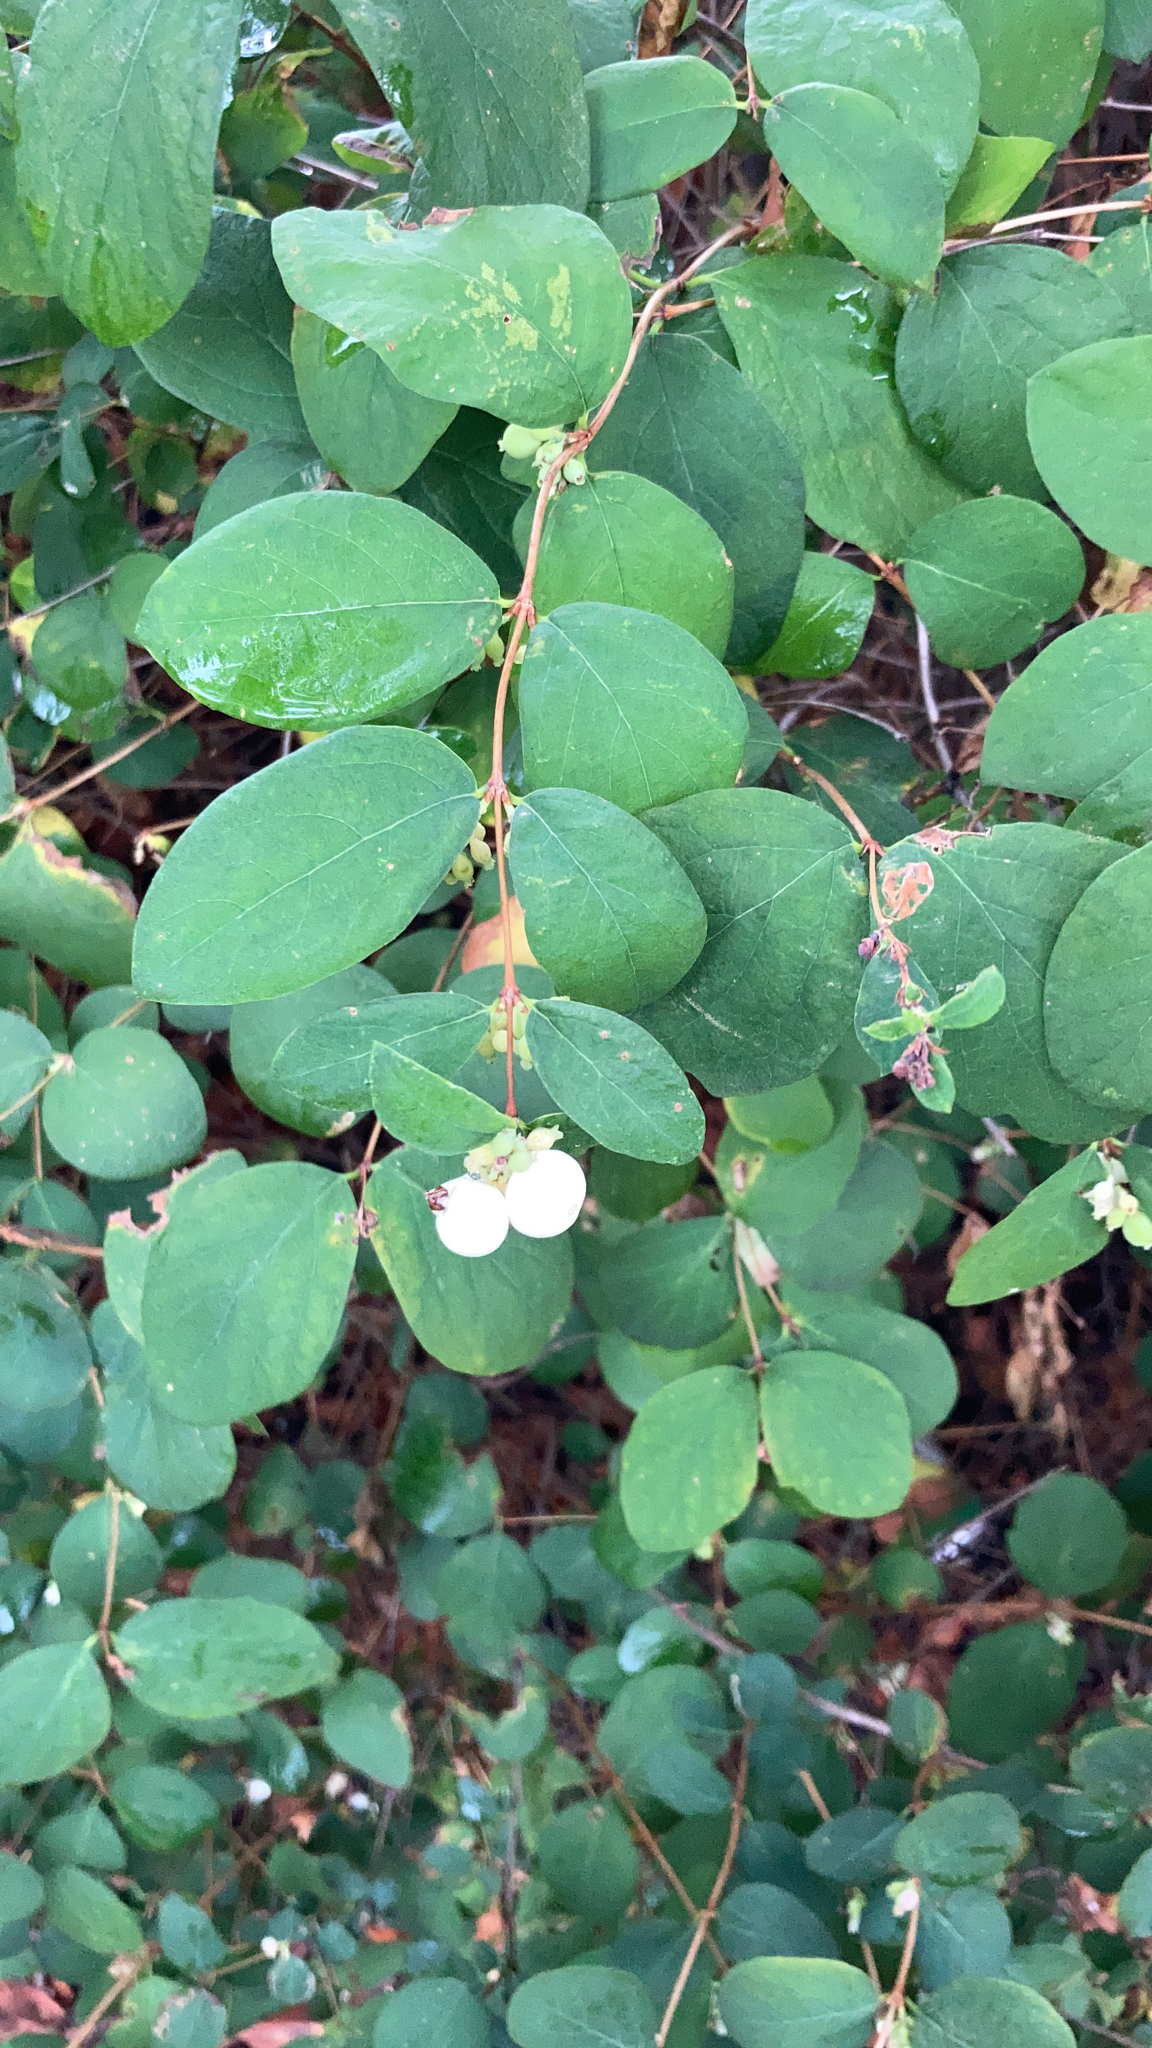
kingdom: Plantae
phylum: Tracheophyta
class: Magnoliopsida
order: Dipsacales
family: Caprifoliaceae
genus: Symphoricarpos
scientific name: Symphoricarpos albus
